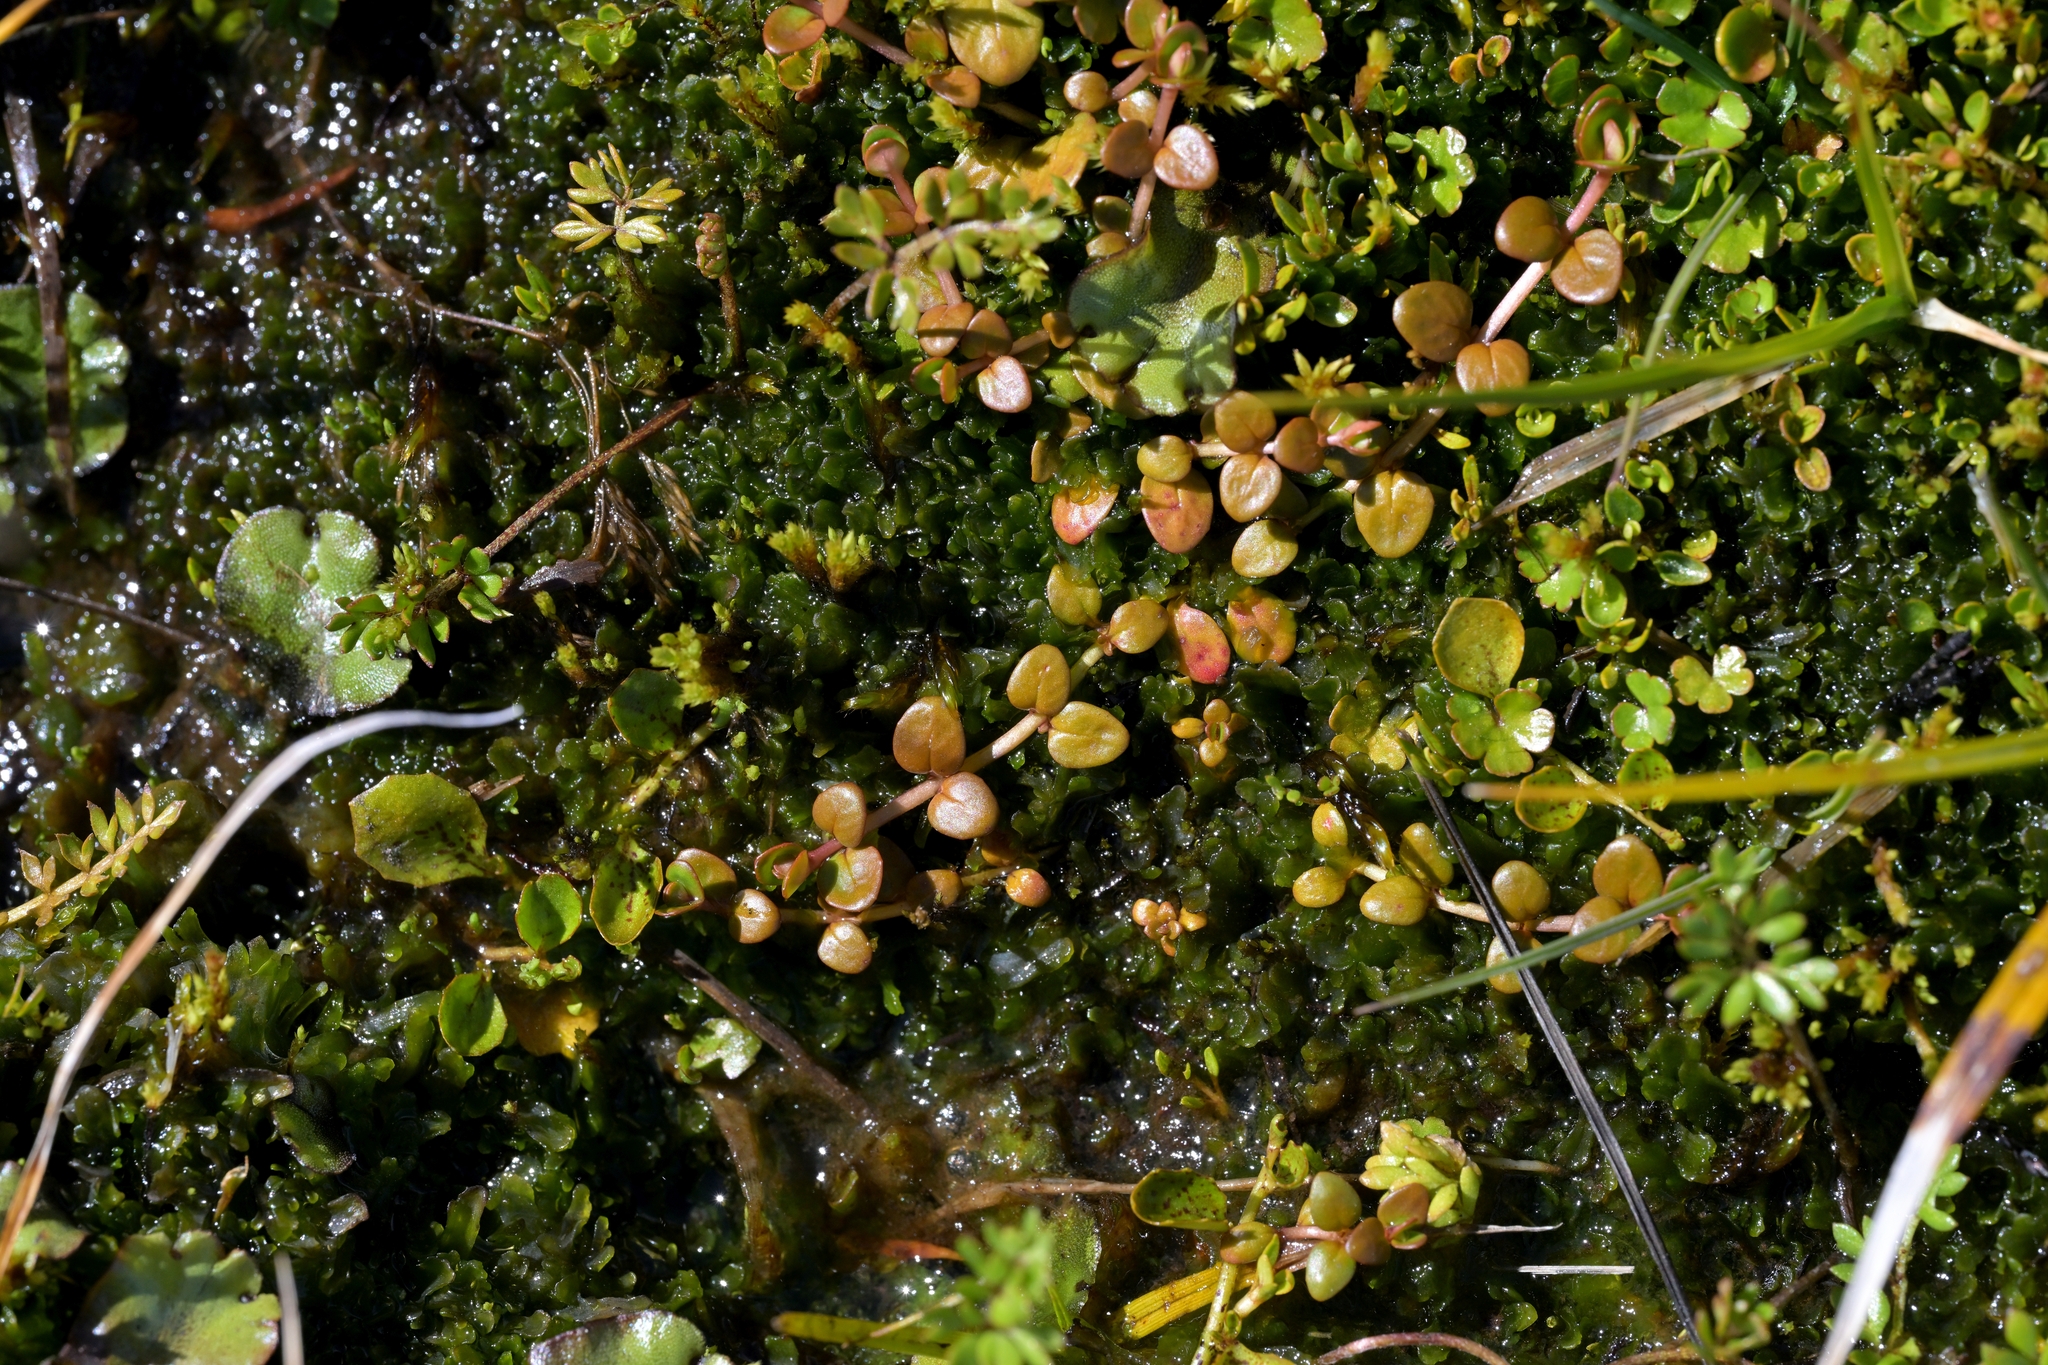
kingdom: Plantae
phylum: Tracheophyta
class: Magnoliopsida
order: Myrtales
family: Onagraceae
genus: Epilobium
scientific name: Epilobium brunnescens
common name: New zealand willowherb
